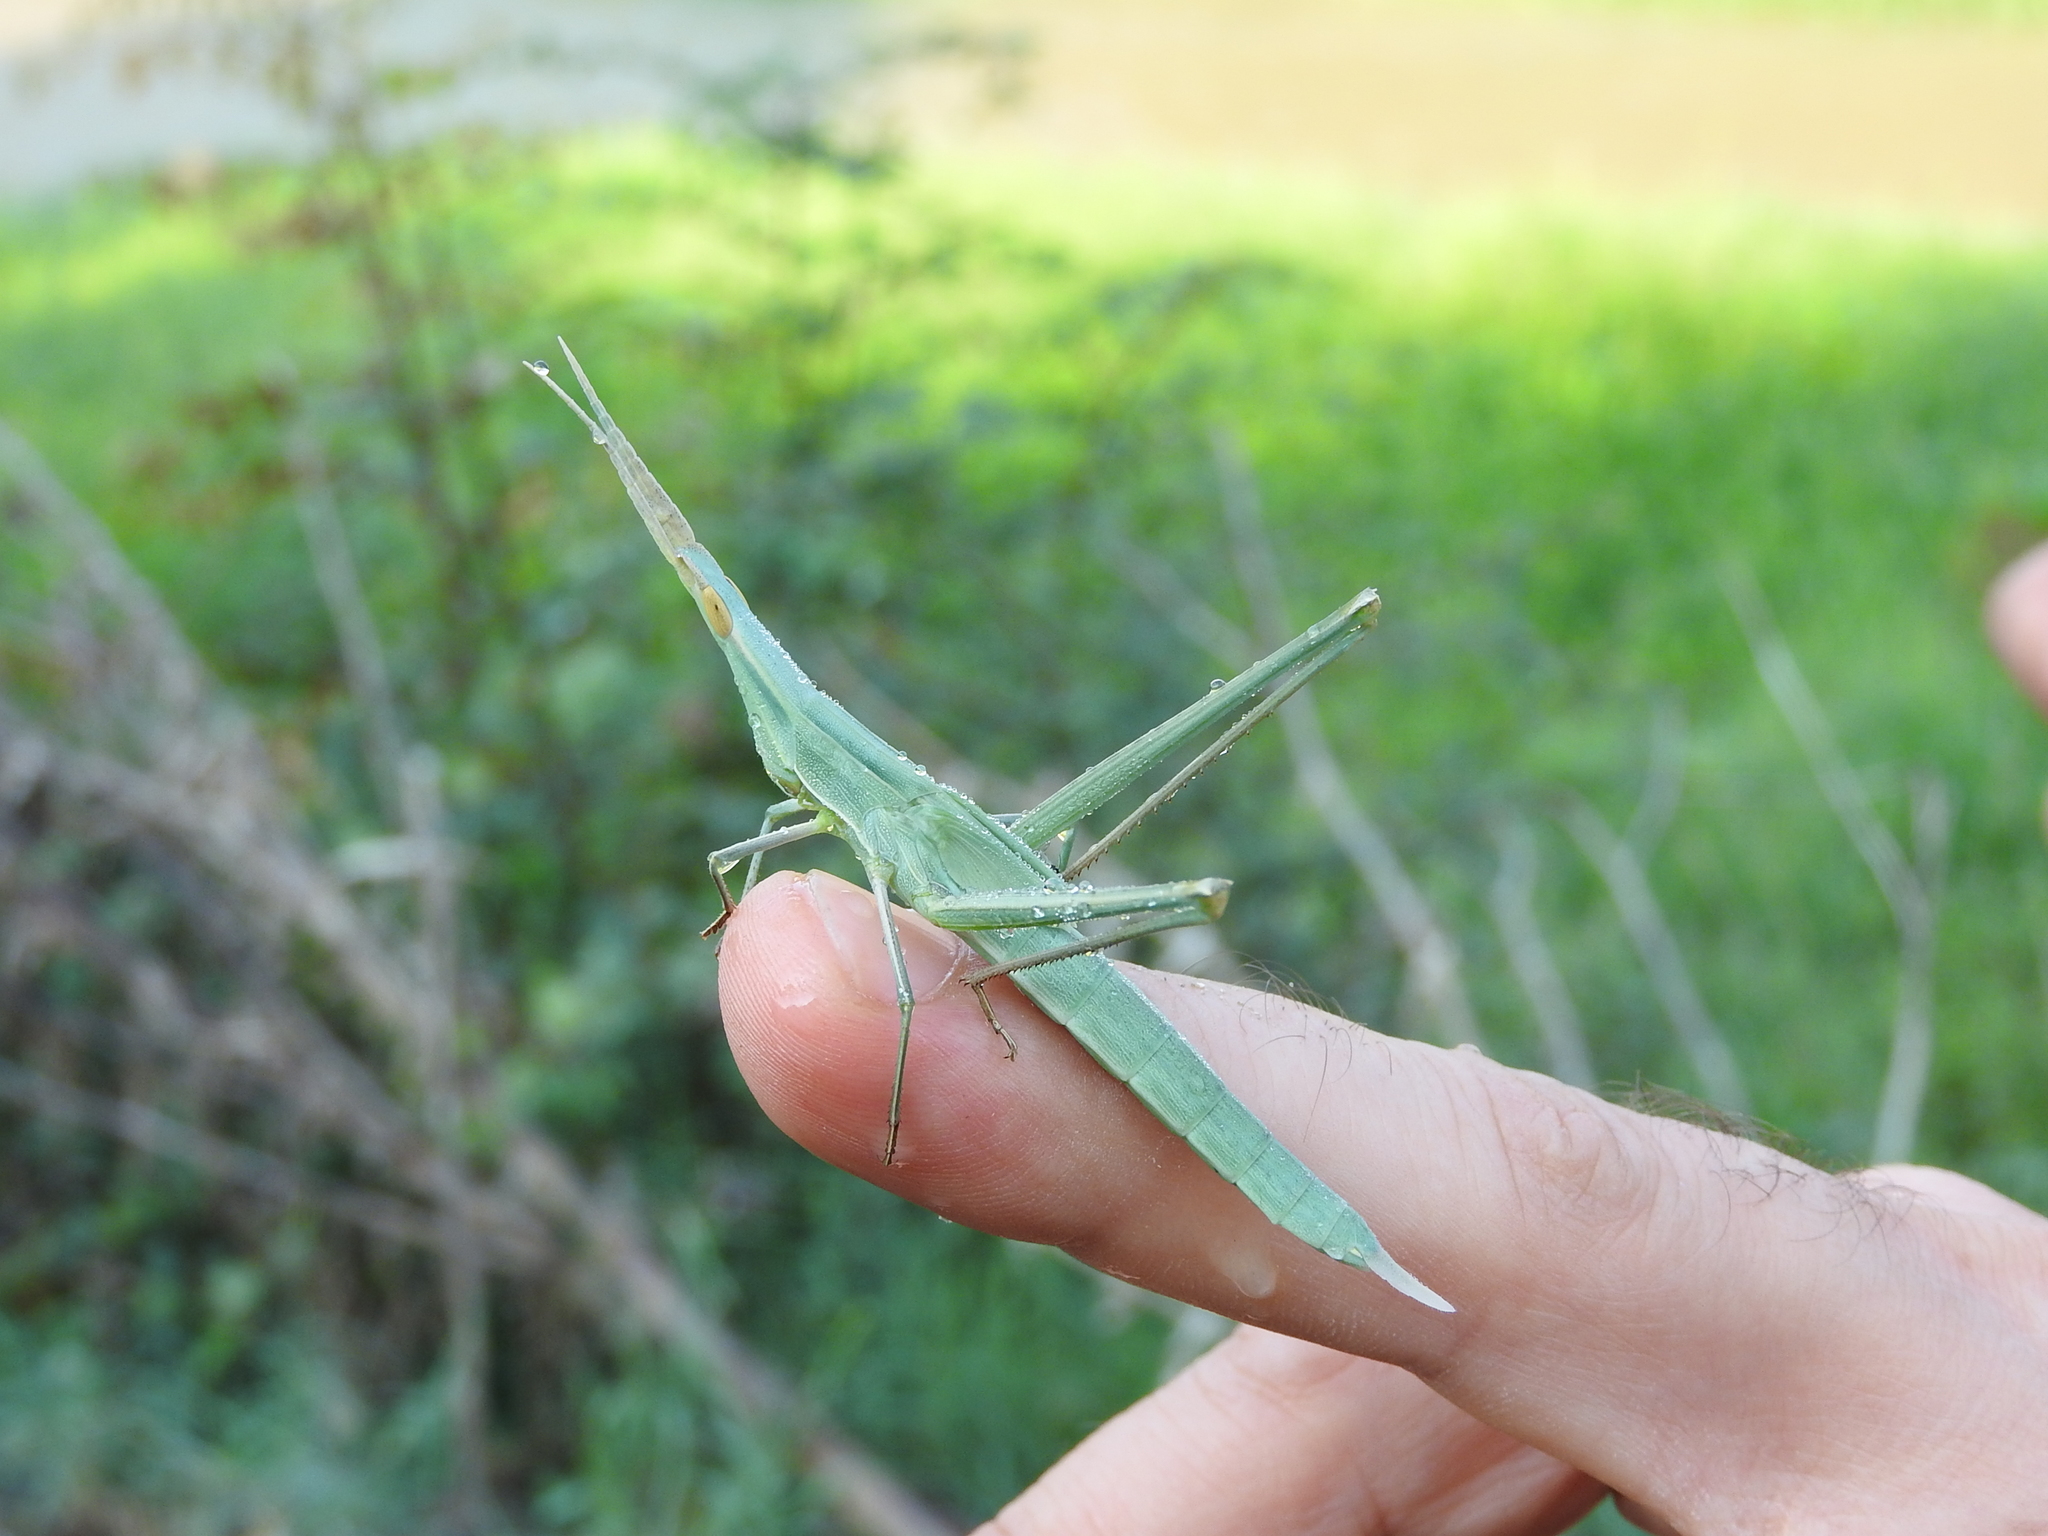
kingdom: Animalia
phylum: Arthropoda
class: Insecta
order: Orthoptera
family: Acrididae
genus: Acrida
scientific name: Acrida ungarica
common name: Common cone-headed grasshopper
